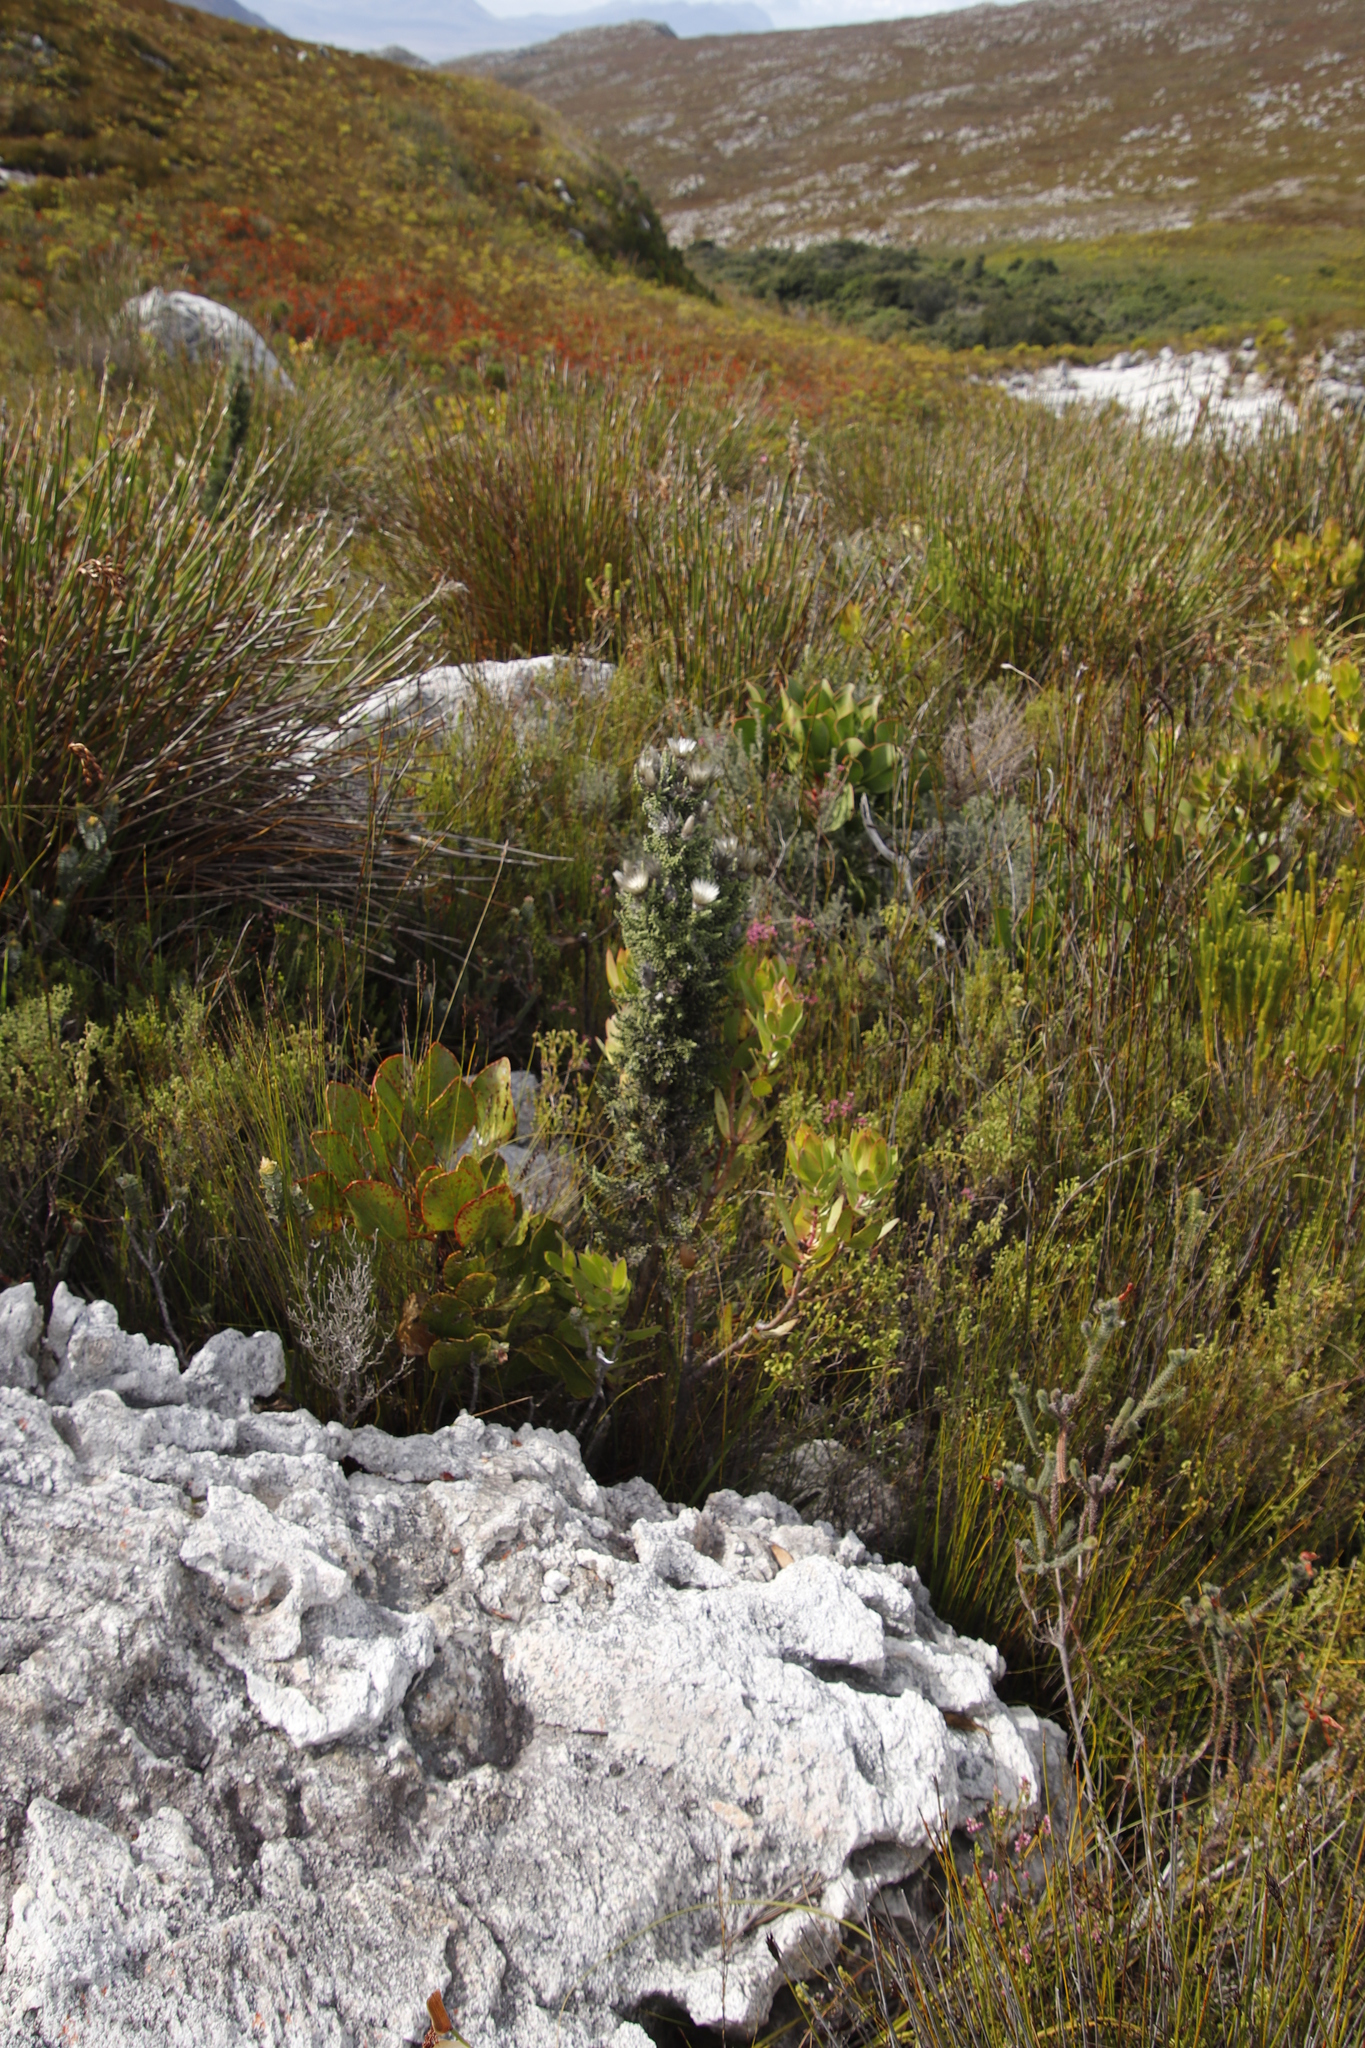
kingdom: Plantae
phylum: Tracheophyta
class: Magnoliopsida
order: Asterales
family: Asteraceae
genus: Phaenocoma
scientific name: Phaenocoma prolifera
